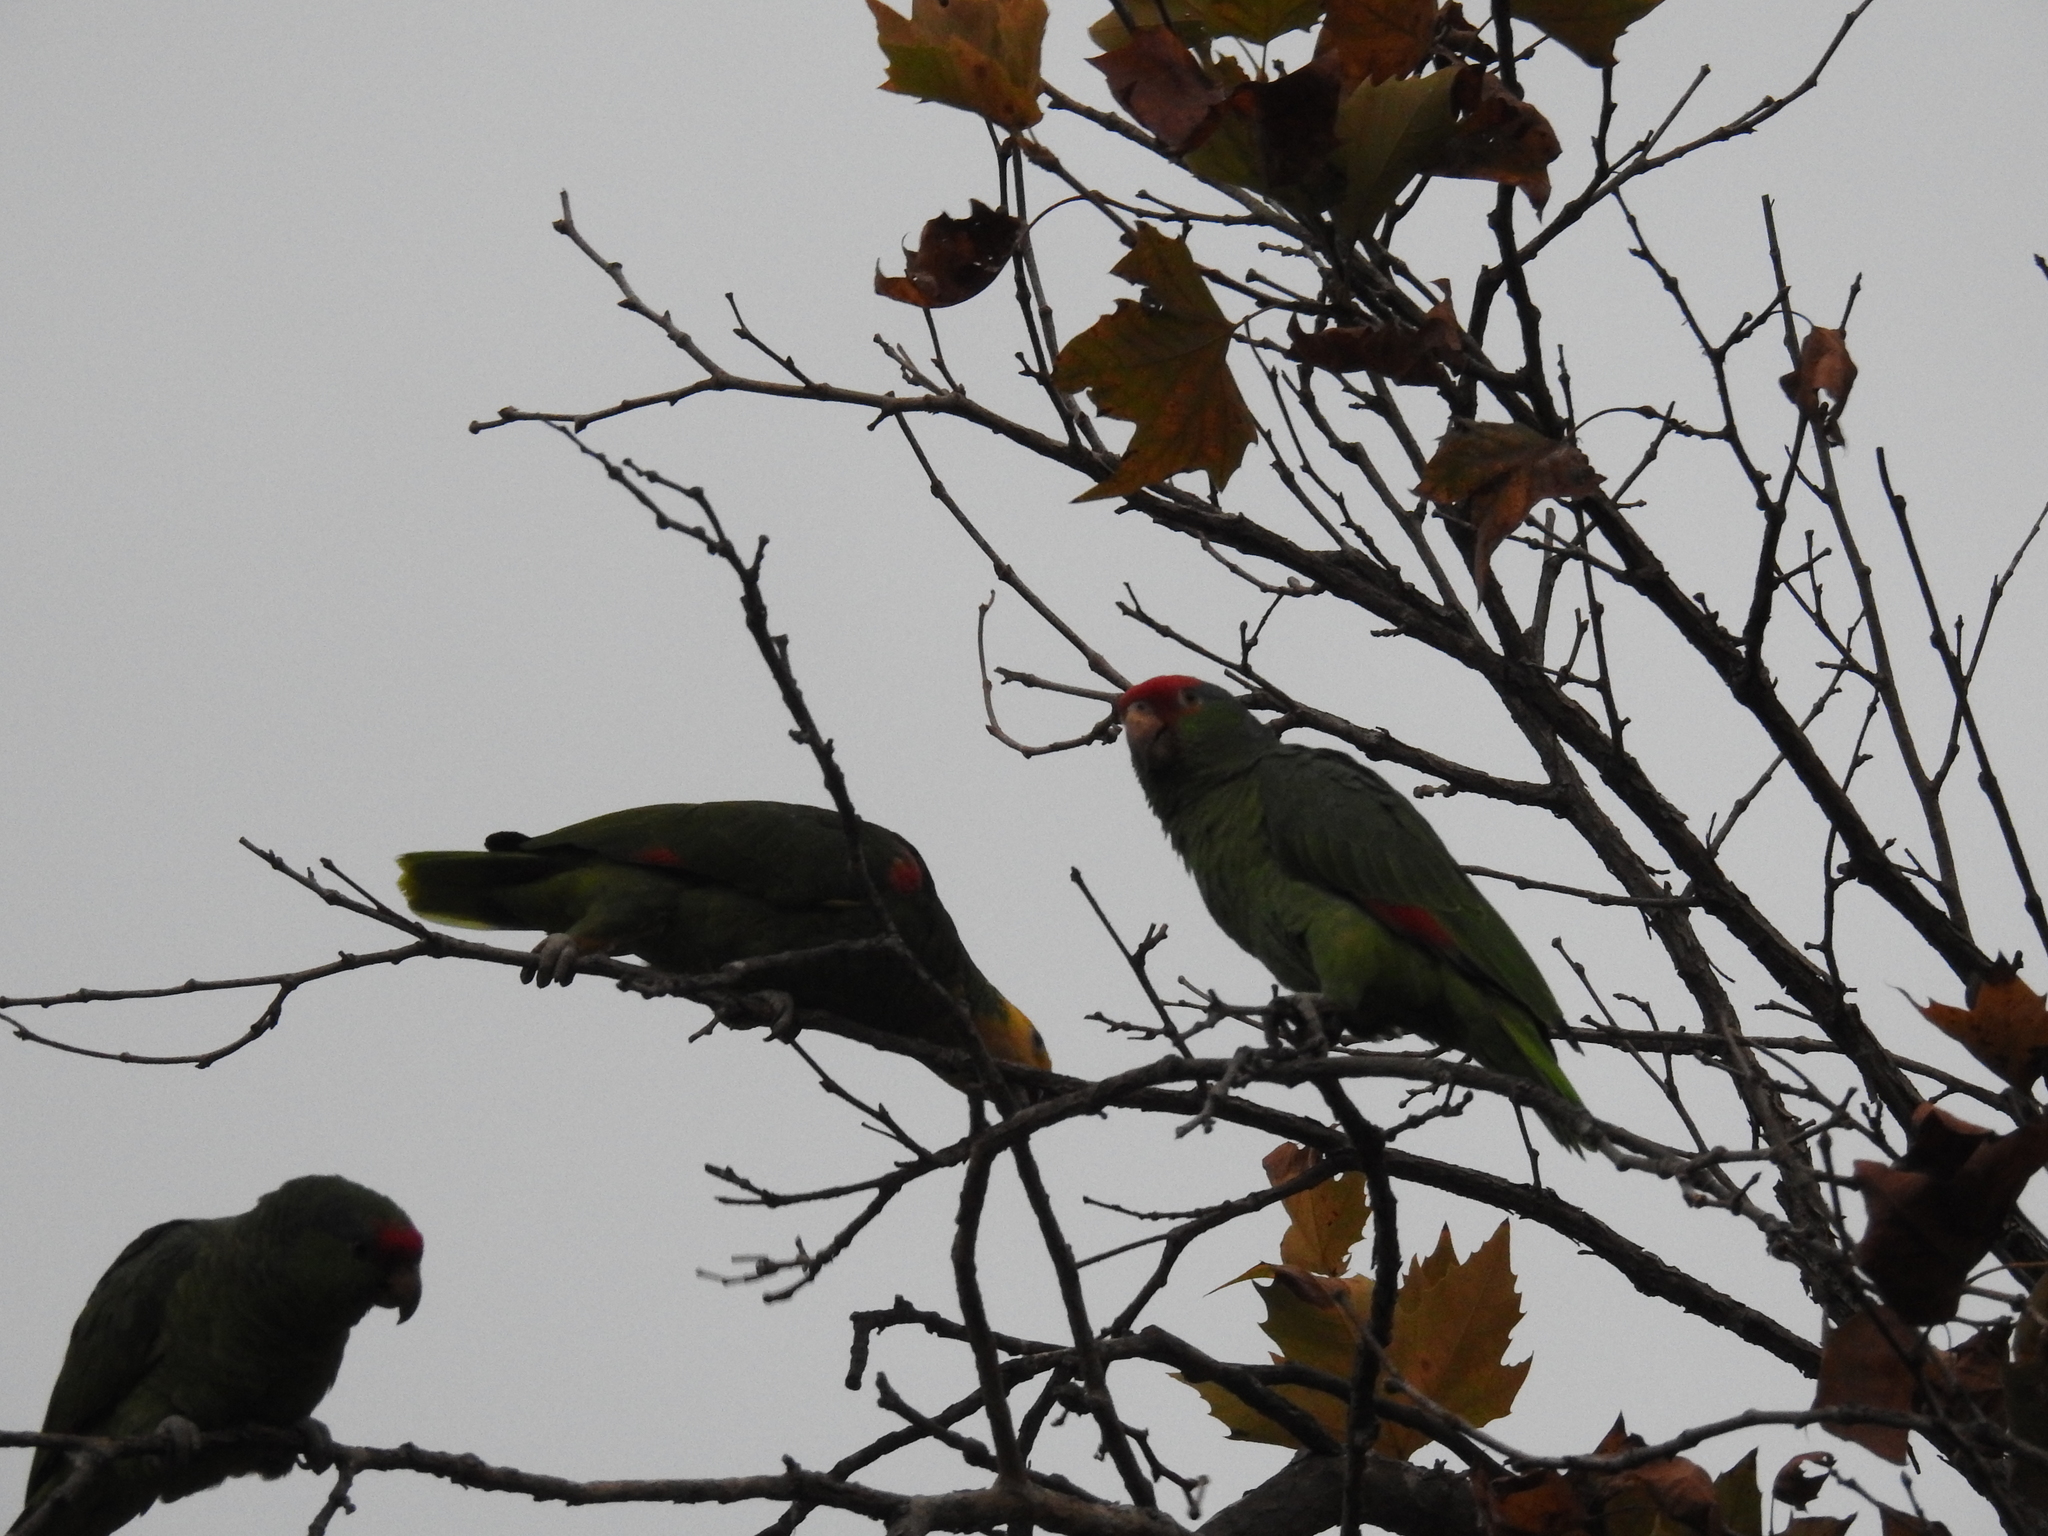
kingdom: Animalia
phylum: Chordata
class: Aves
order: Psittaciformes
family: Psittacidae
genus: Amazona
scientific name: Amazona viridigenalis
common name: Red-crowned amazon
